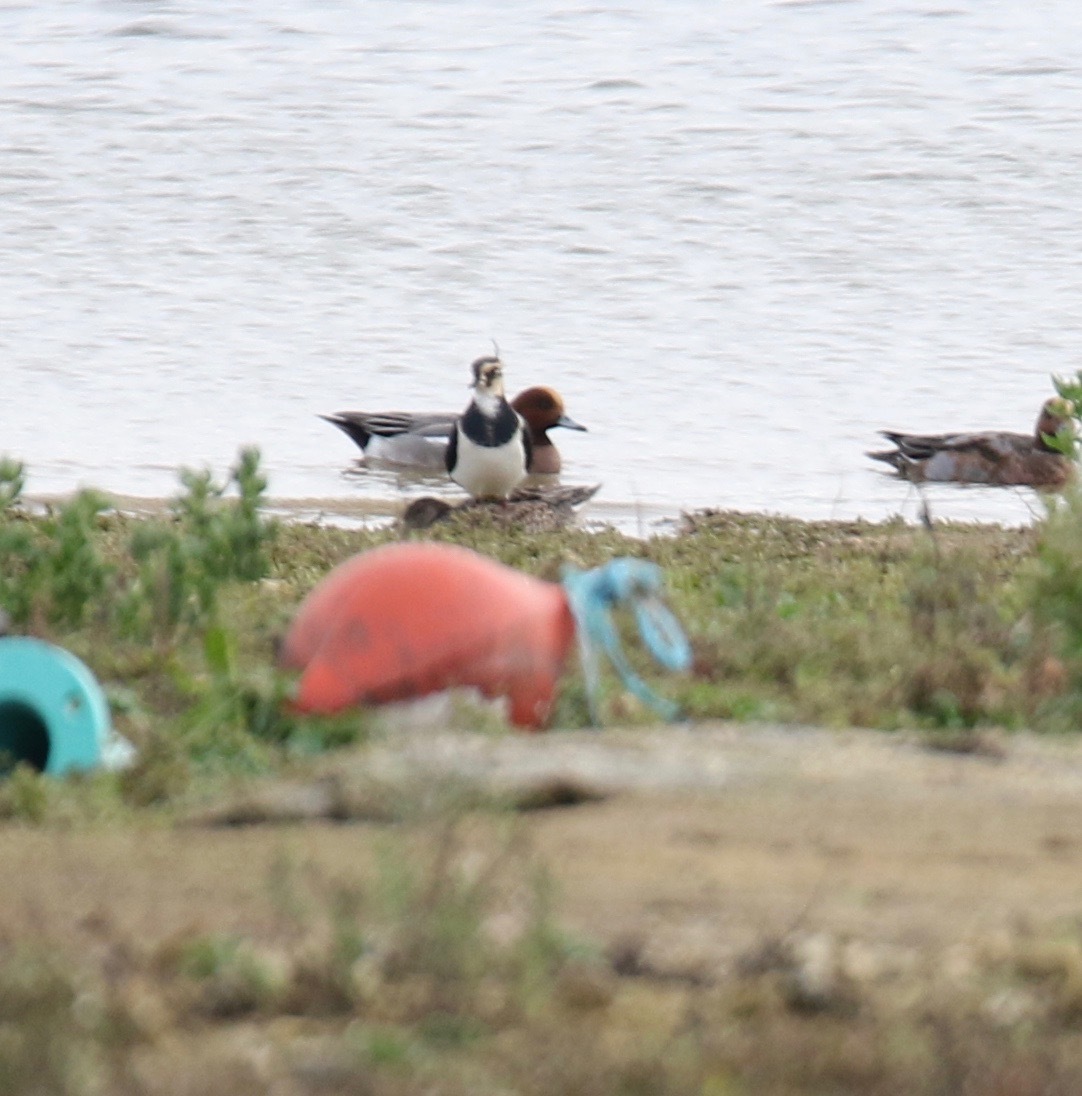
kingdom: Animalia
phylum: Chordata
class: Aves
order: Charadriiformes
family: Charadriidae
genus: Vanellus
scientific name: Vanellus vanellus
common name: Northern lapwing
